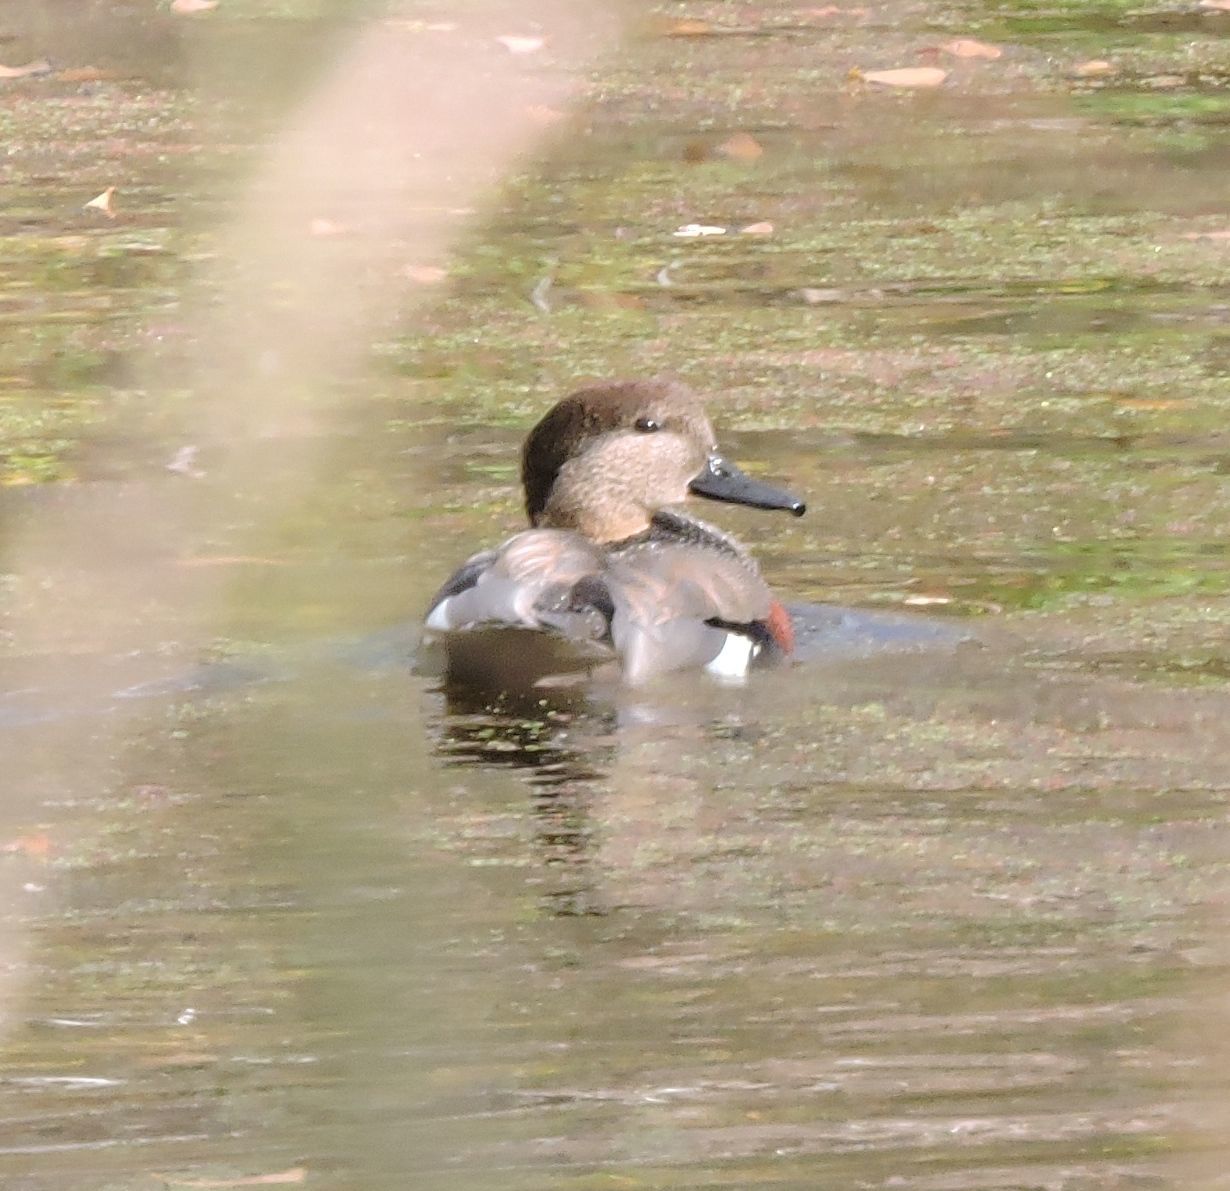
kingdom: Animalia
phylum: Chordata
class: Aves
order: Anseriformes
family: Anatidae
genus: Mareca
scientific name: Mareca strepera
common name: Gadwall
